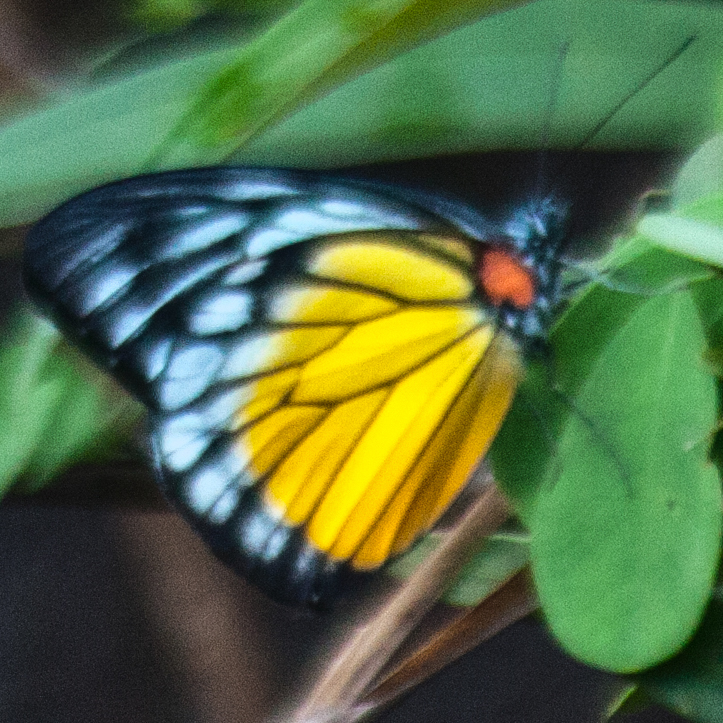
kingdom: Animalia
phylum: Arthropoda
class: Insecta
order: Lepidoptera
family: Pieridae
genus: Prioneris
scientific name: Prioneris
